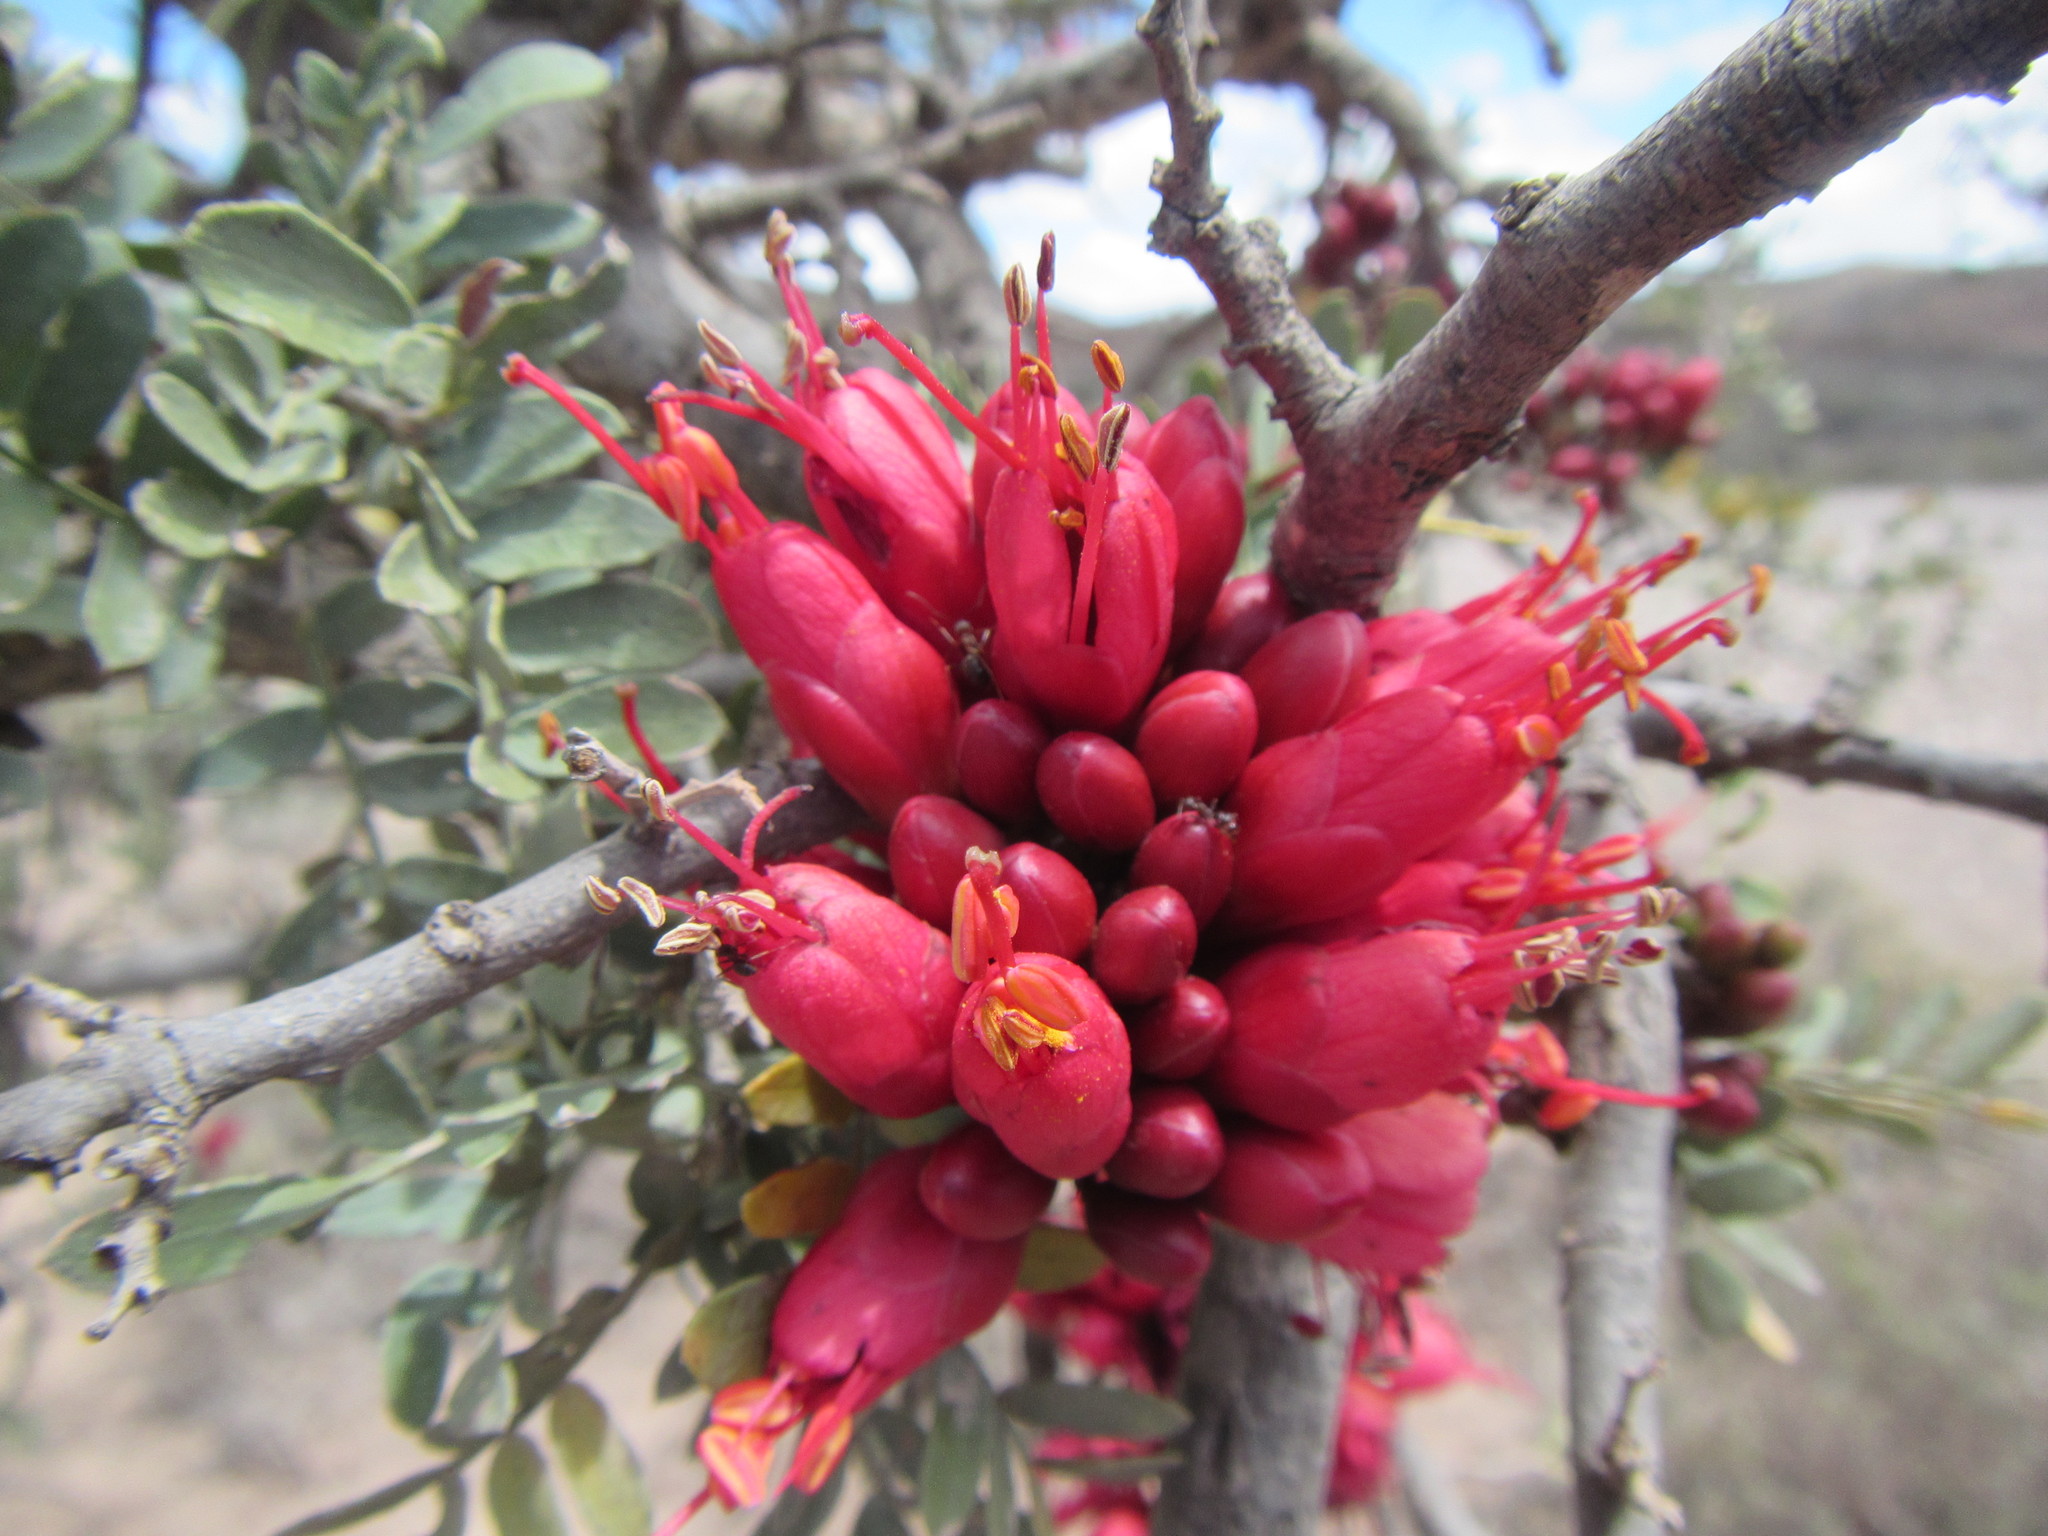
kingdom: Plantae
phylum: Tracheophyta
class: Magnoliopsida
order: Fabales
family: Fabaceae
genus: Schotia
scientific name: Schotia afra
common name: Hottentot's bean
